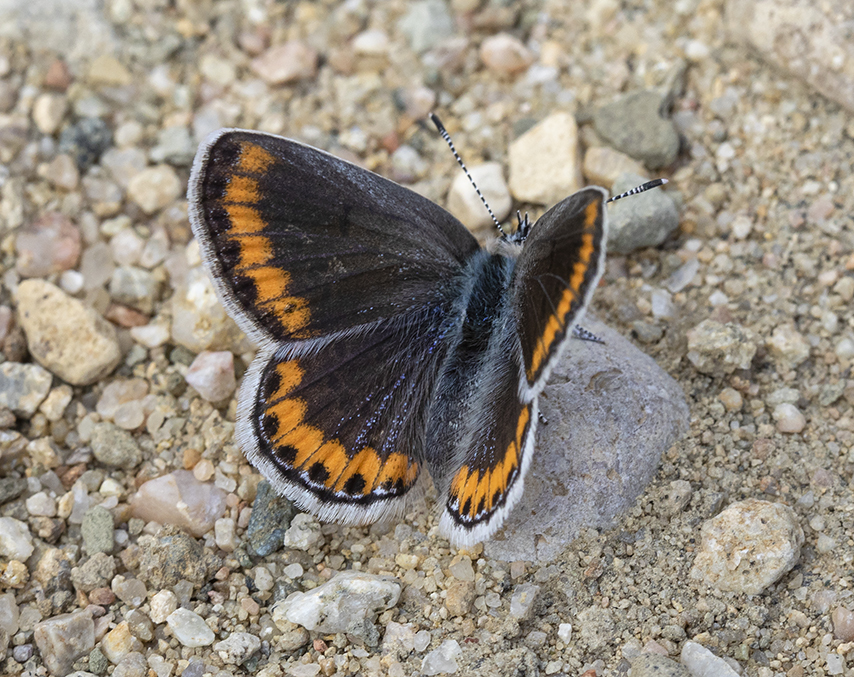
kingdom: Animalia
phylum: Arthropoda
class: Insecta
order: Lepidoptera
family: Lycaenidae
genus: Lycaeides
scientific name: Lycaeides melissa
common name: Melissa blue
